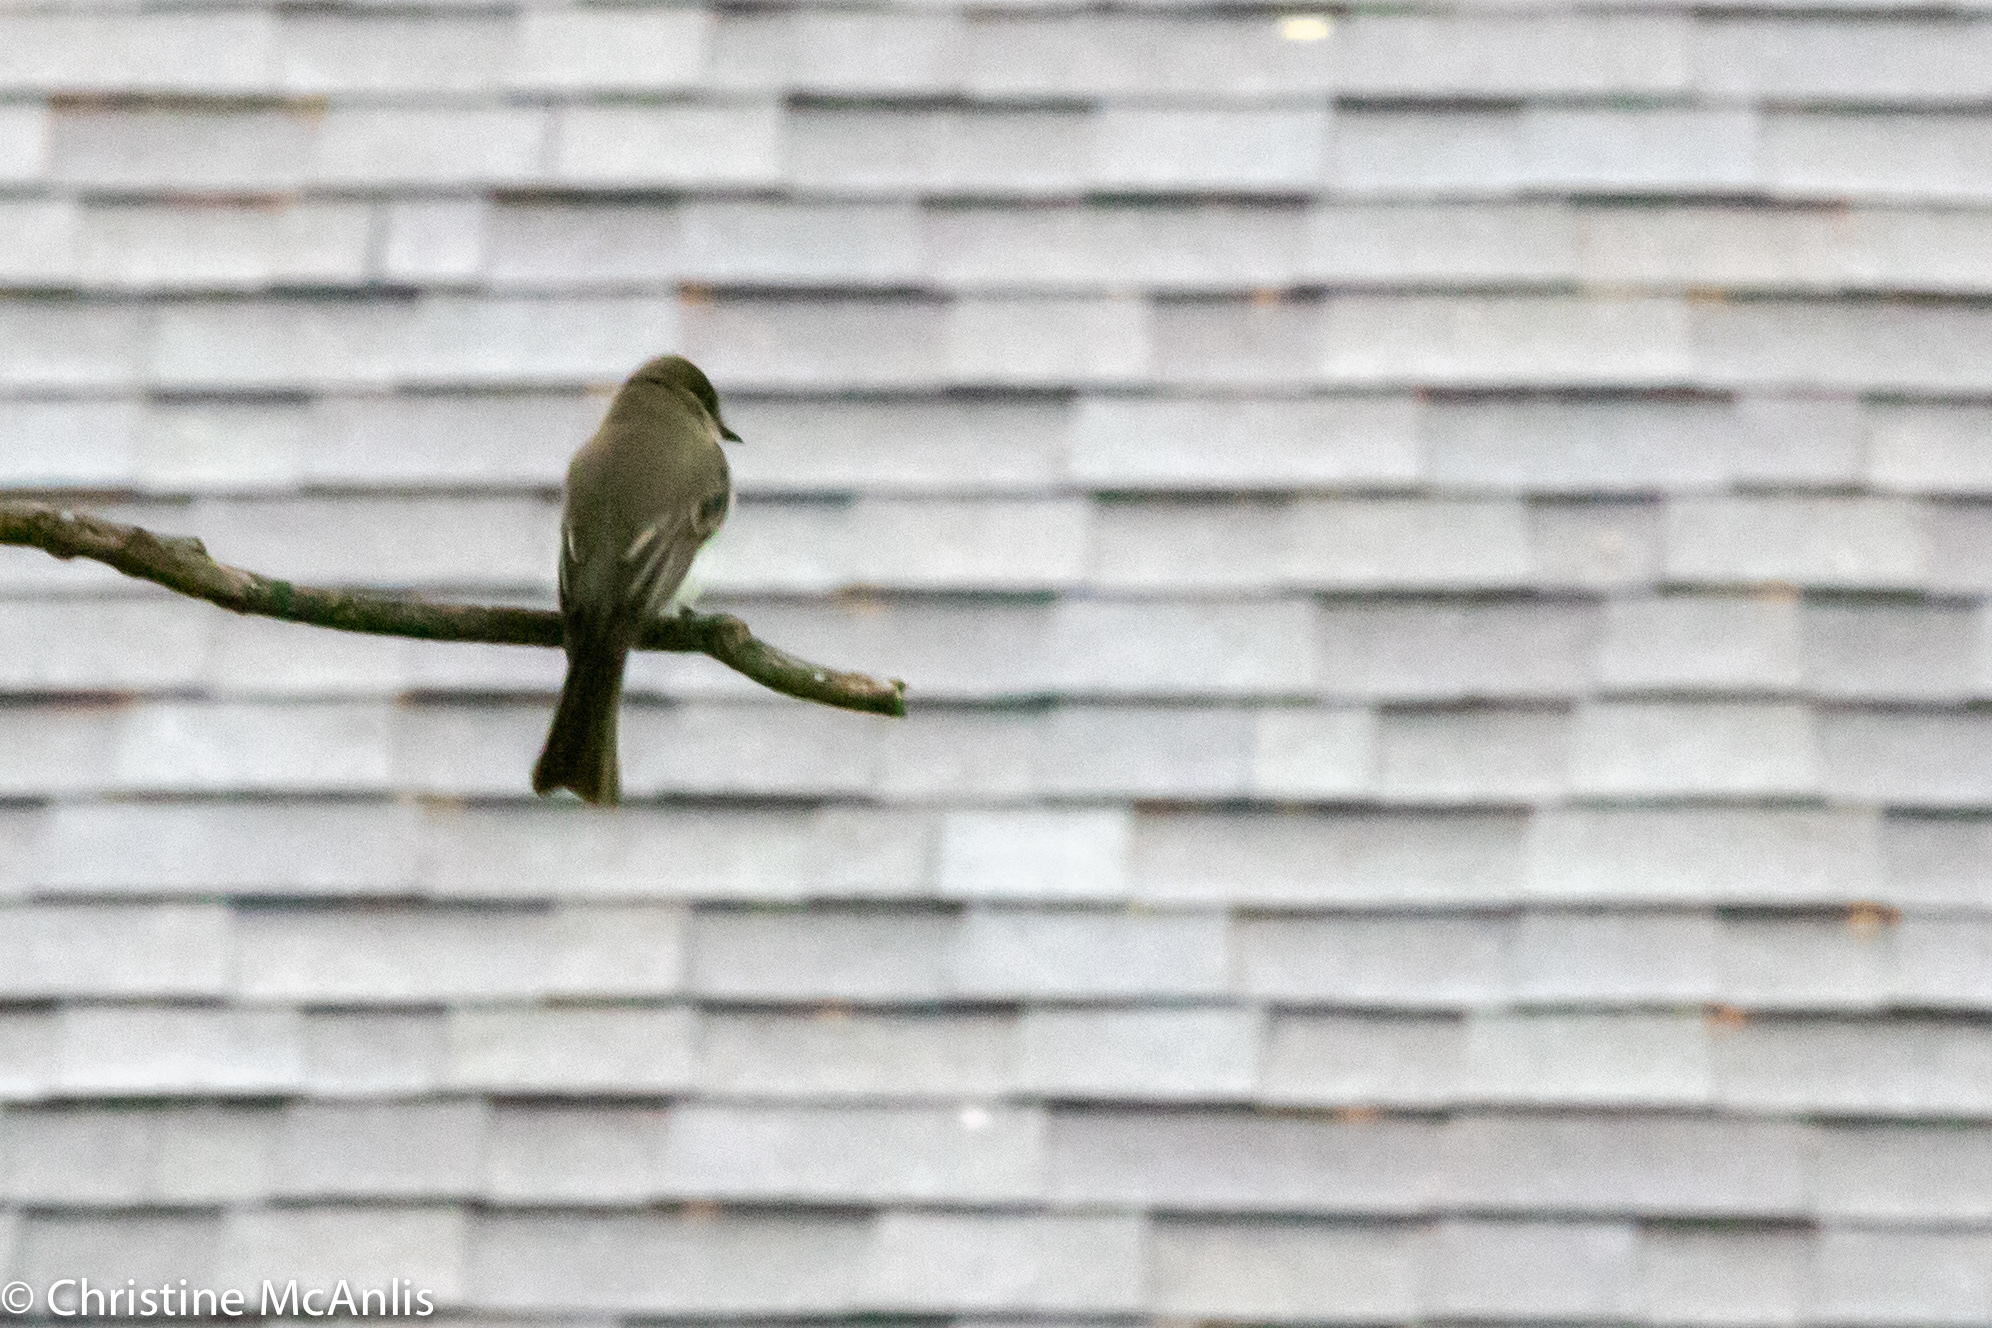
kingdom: Animalia
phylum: Chordata
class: Aves
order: Passeriformes
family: Tyrannidae
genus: Sayornis
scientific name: Sayornis phoebe
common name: Eastern phoebe
